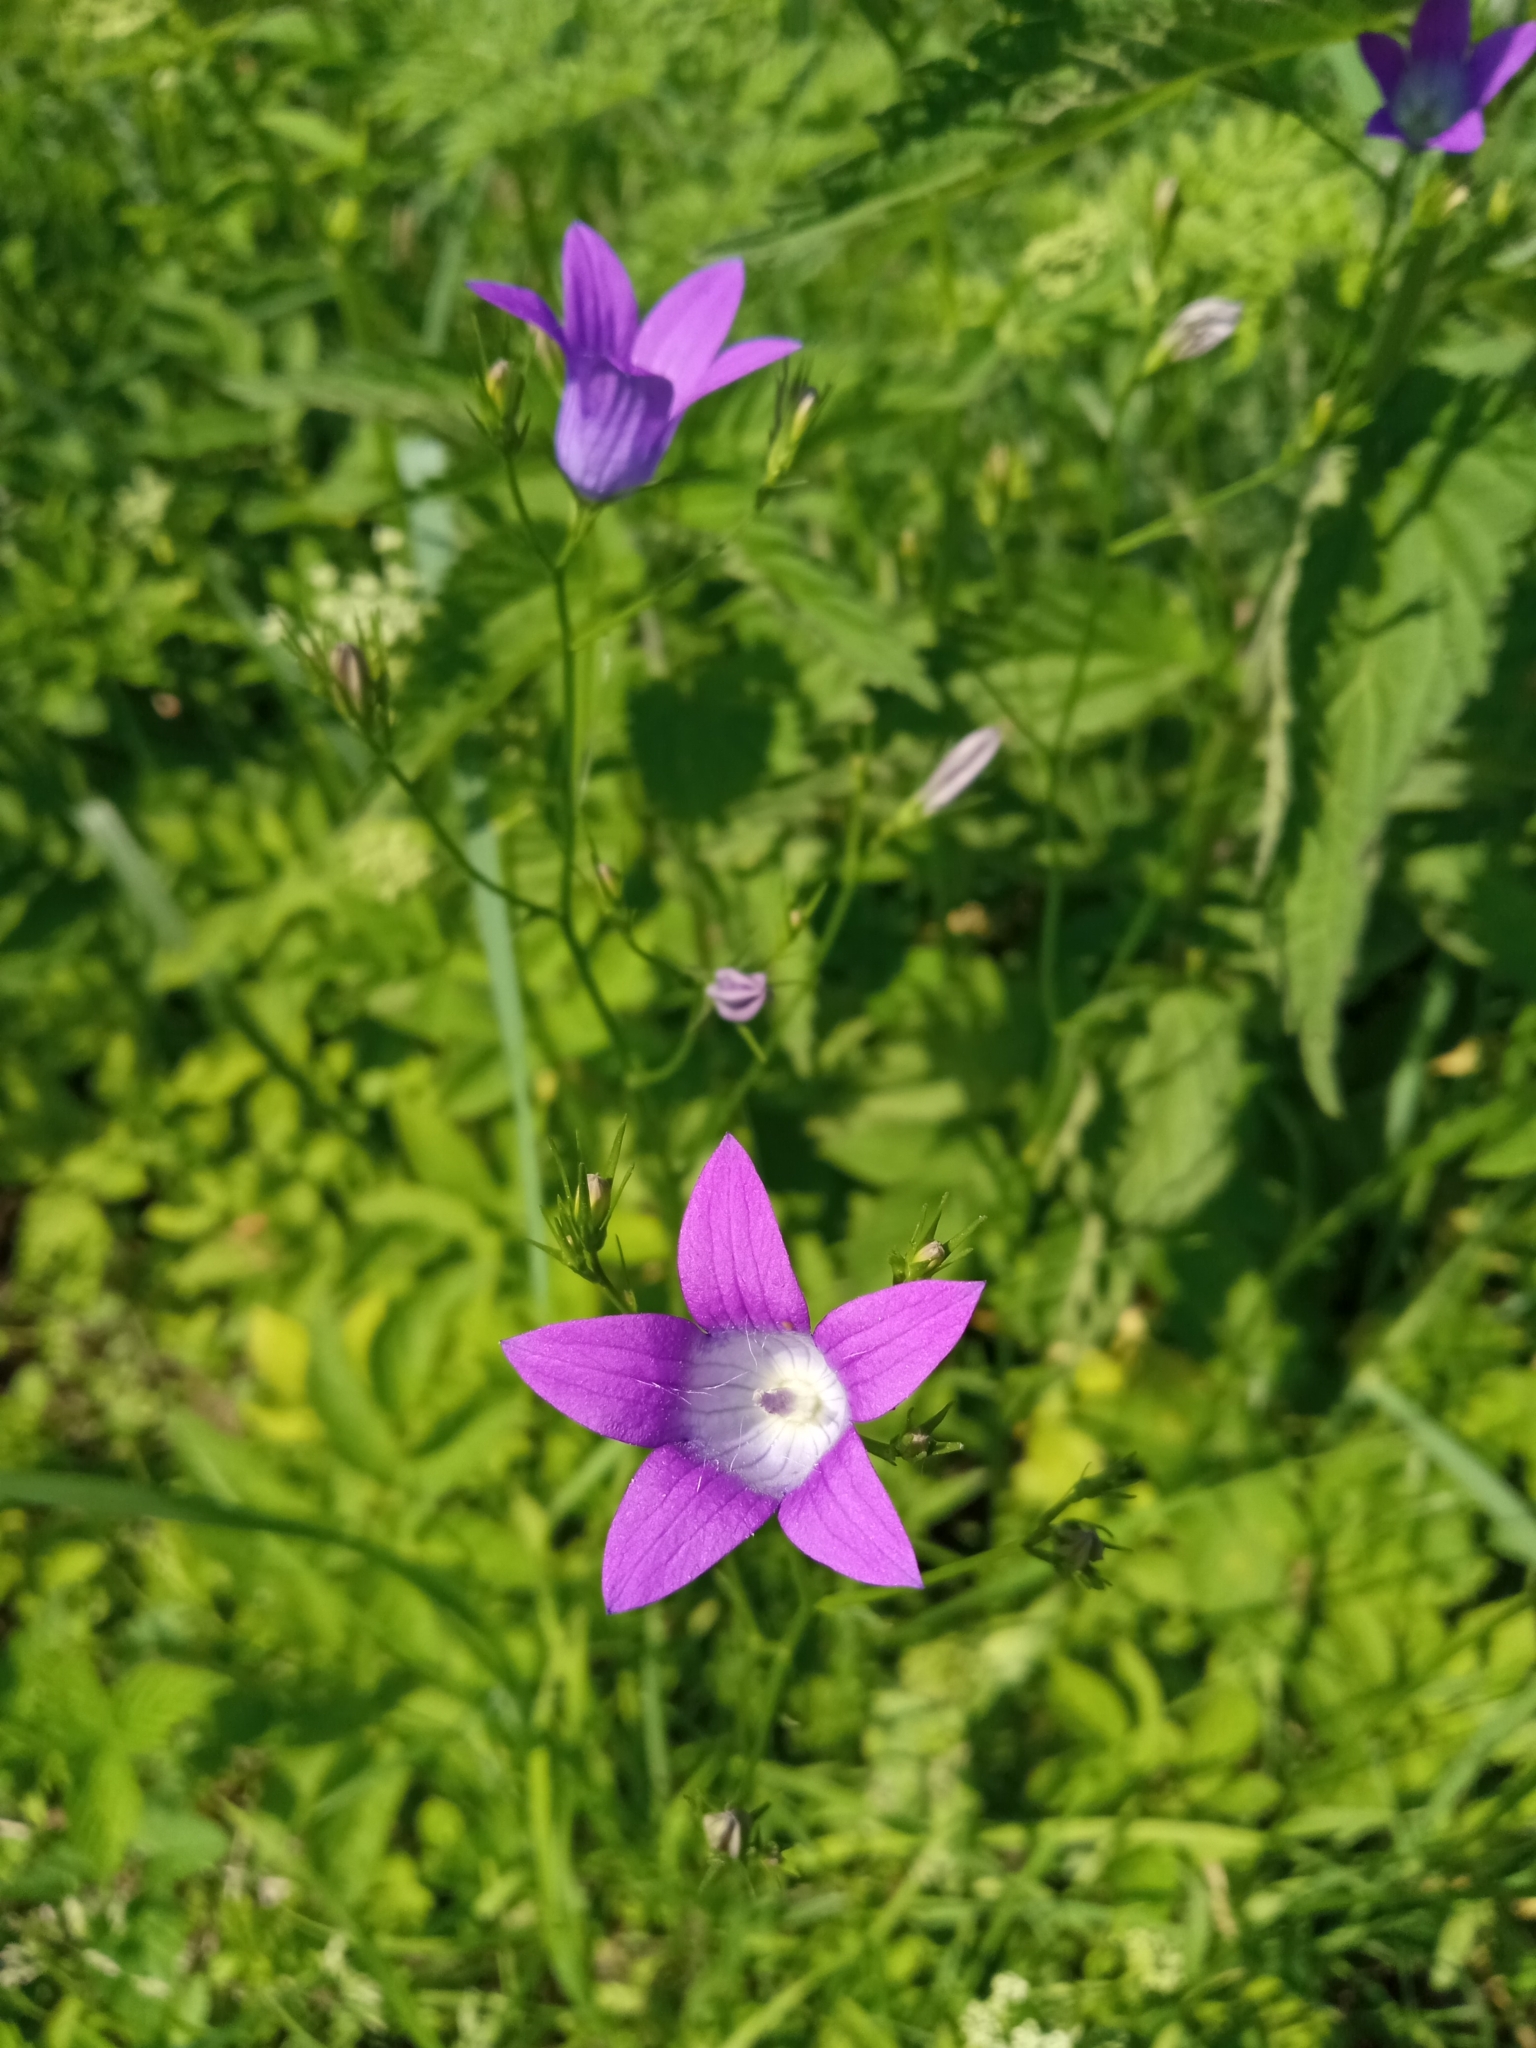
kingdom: Plantae
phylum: Tracheophyta
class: Magnoliopsida
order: Asterales
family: Campanulaceae
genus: Campanula
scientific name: Campanula patula
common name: Spreading bellflower
